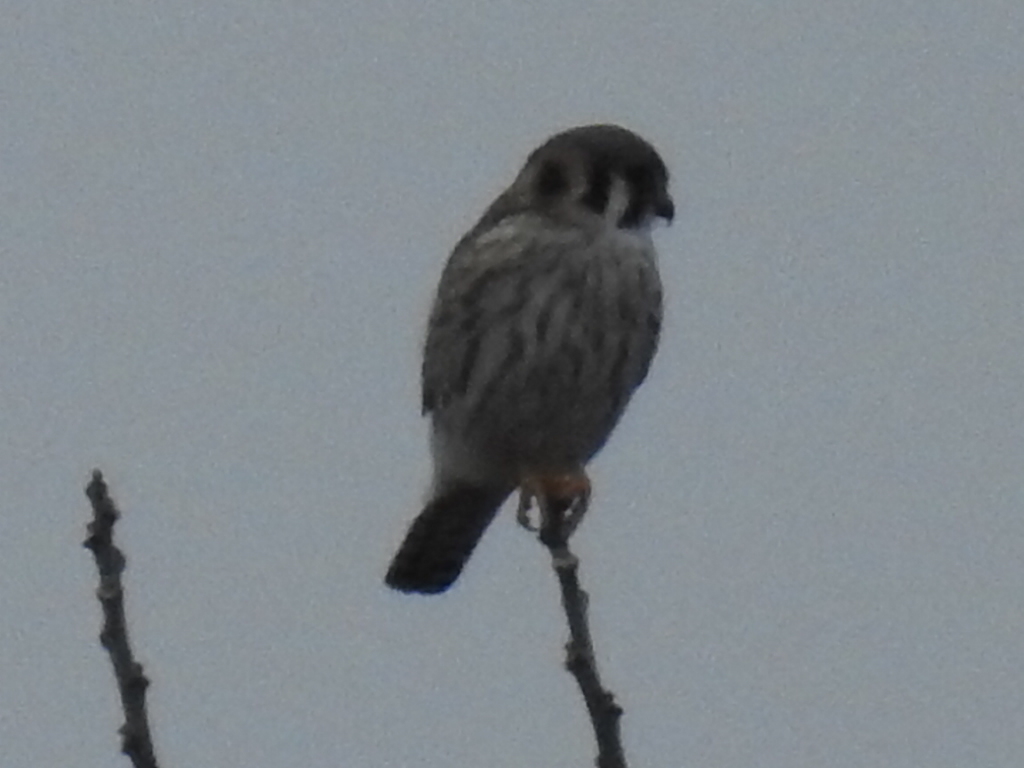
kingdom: Animalia
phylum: Chordata
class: Aves
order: Falconiformes
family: Falconidae
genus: Falco
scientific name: Falco sparverius
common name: American kestrel
